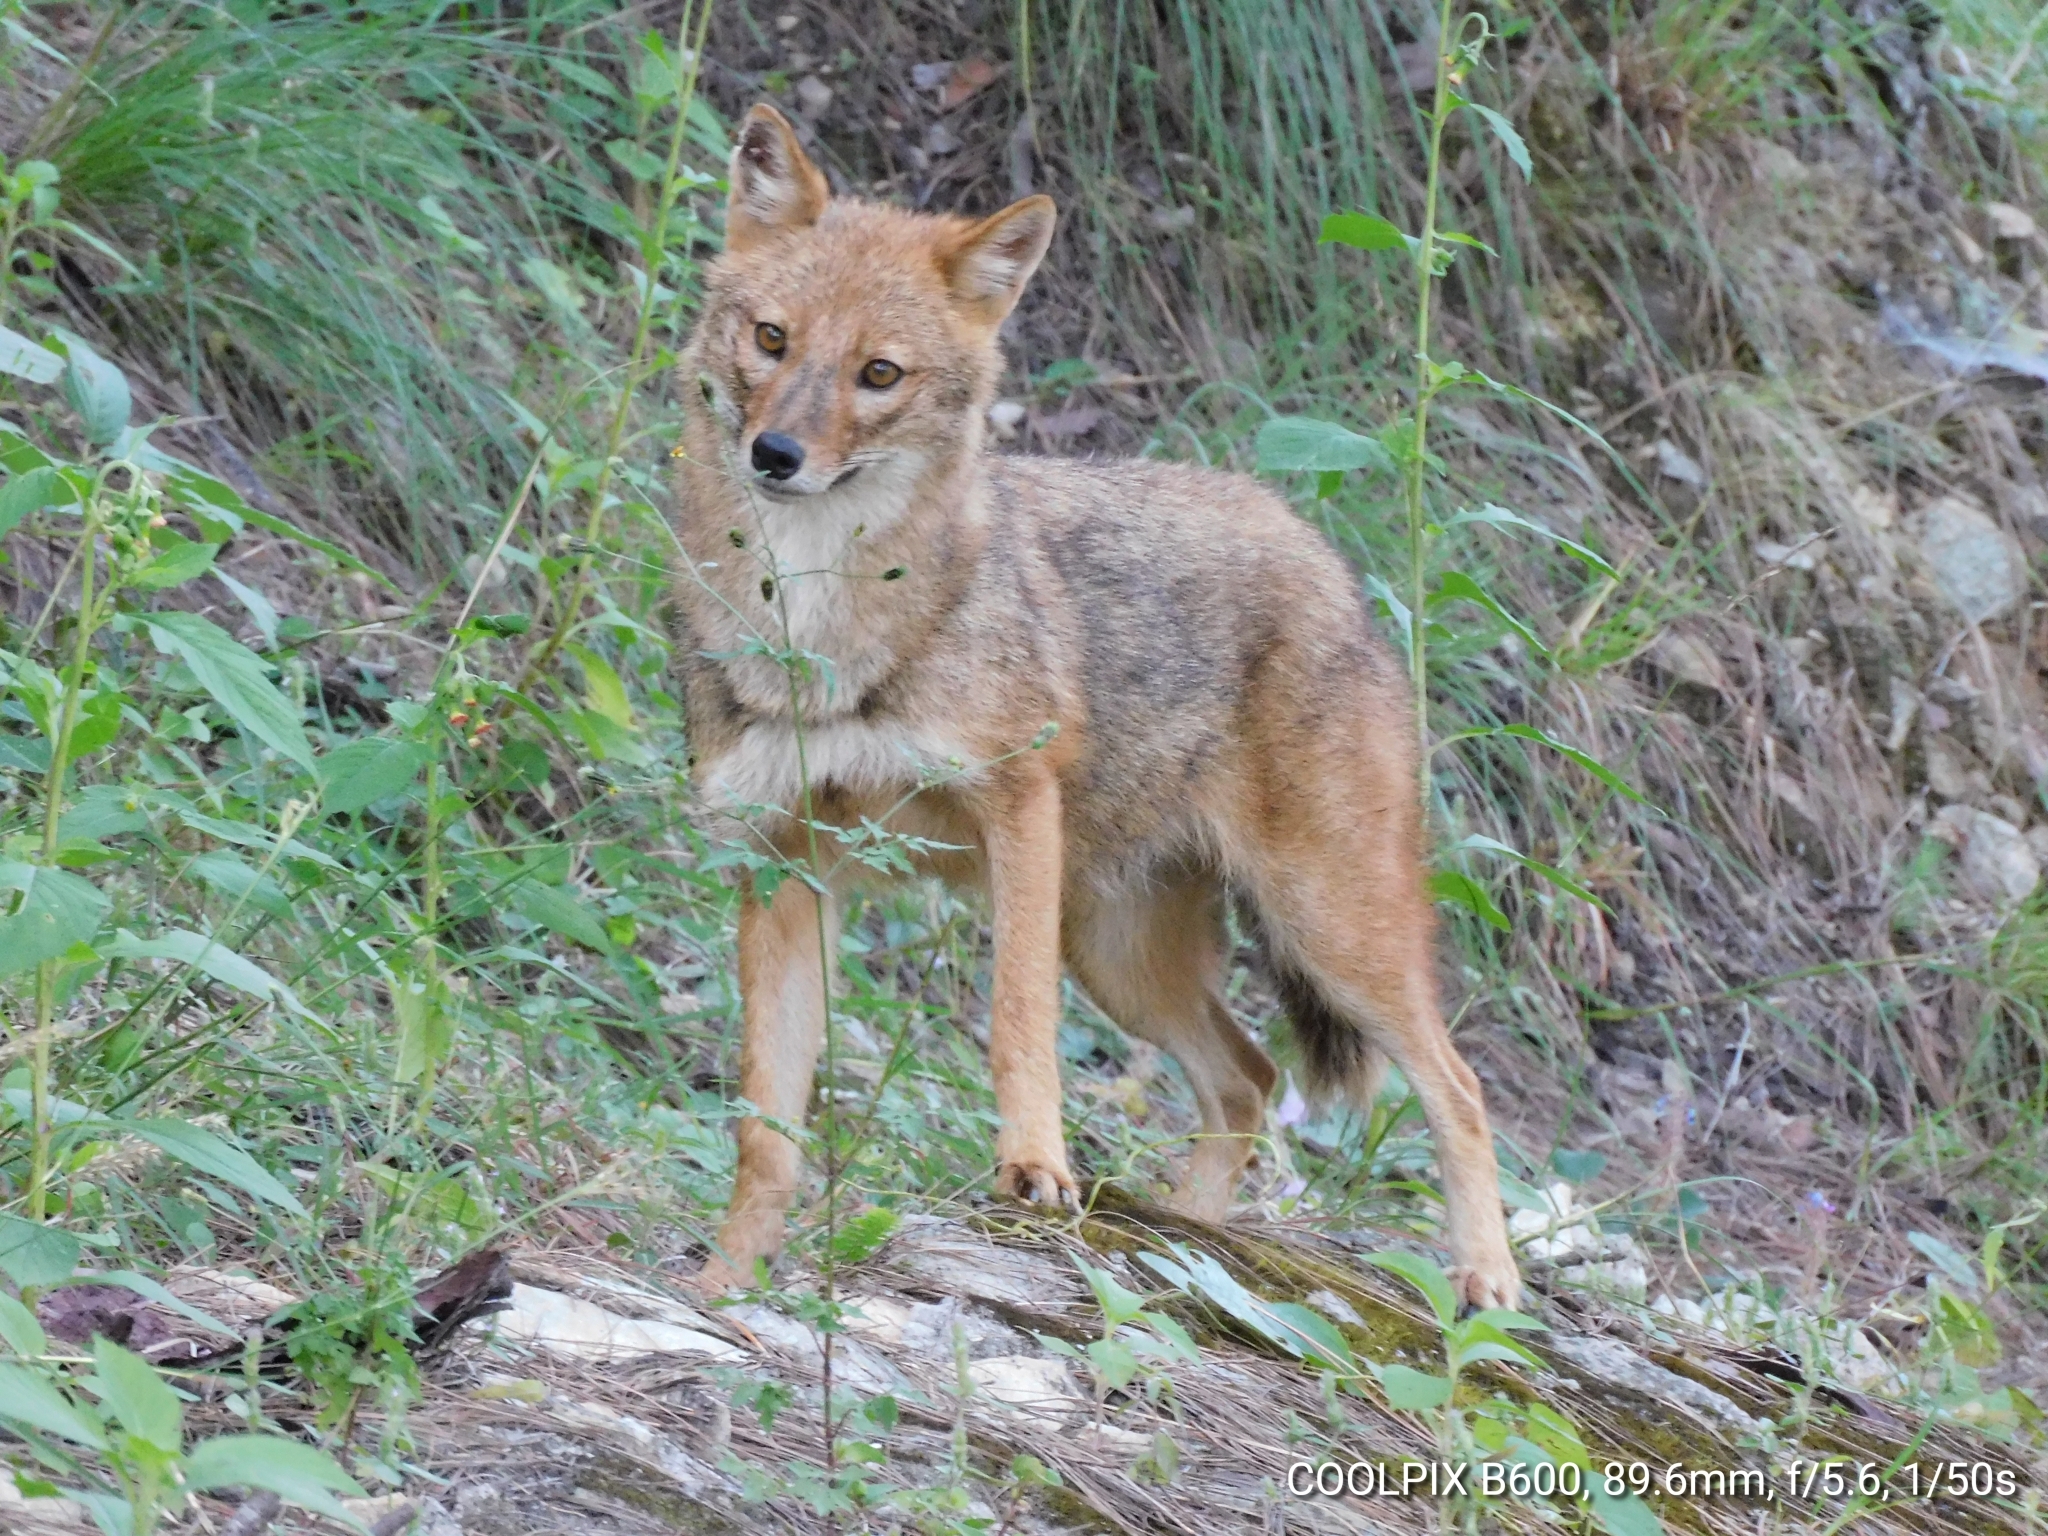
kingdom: Animalia
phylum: Chordata
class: Mammalia
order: Carnivora
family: Canidae
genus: Canis
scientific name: Canis aureus
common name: Golden jackal
